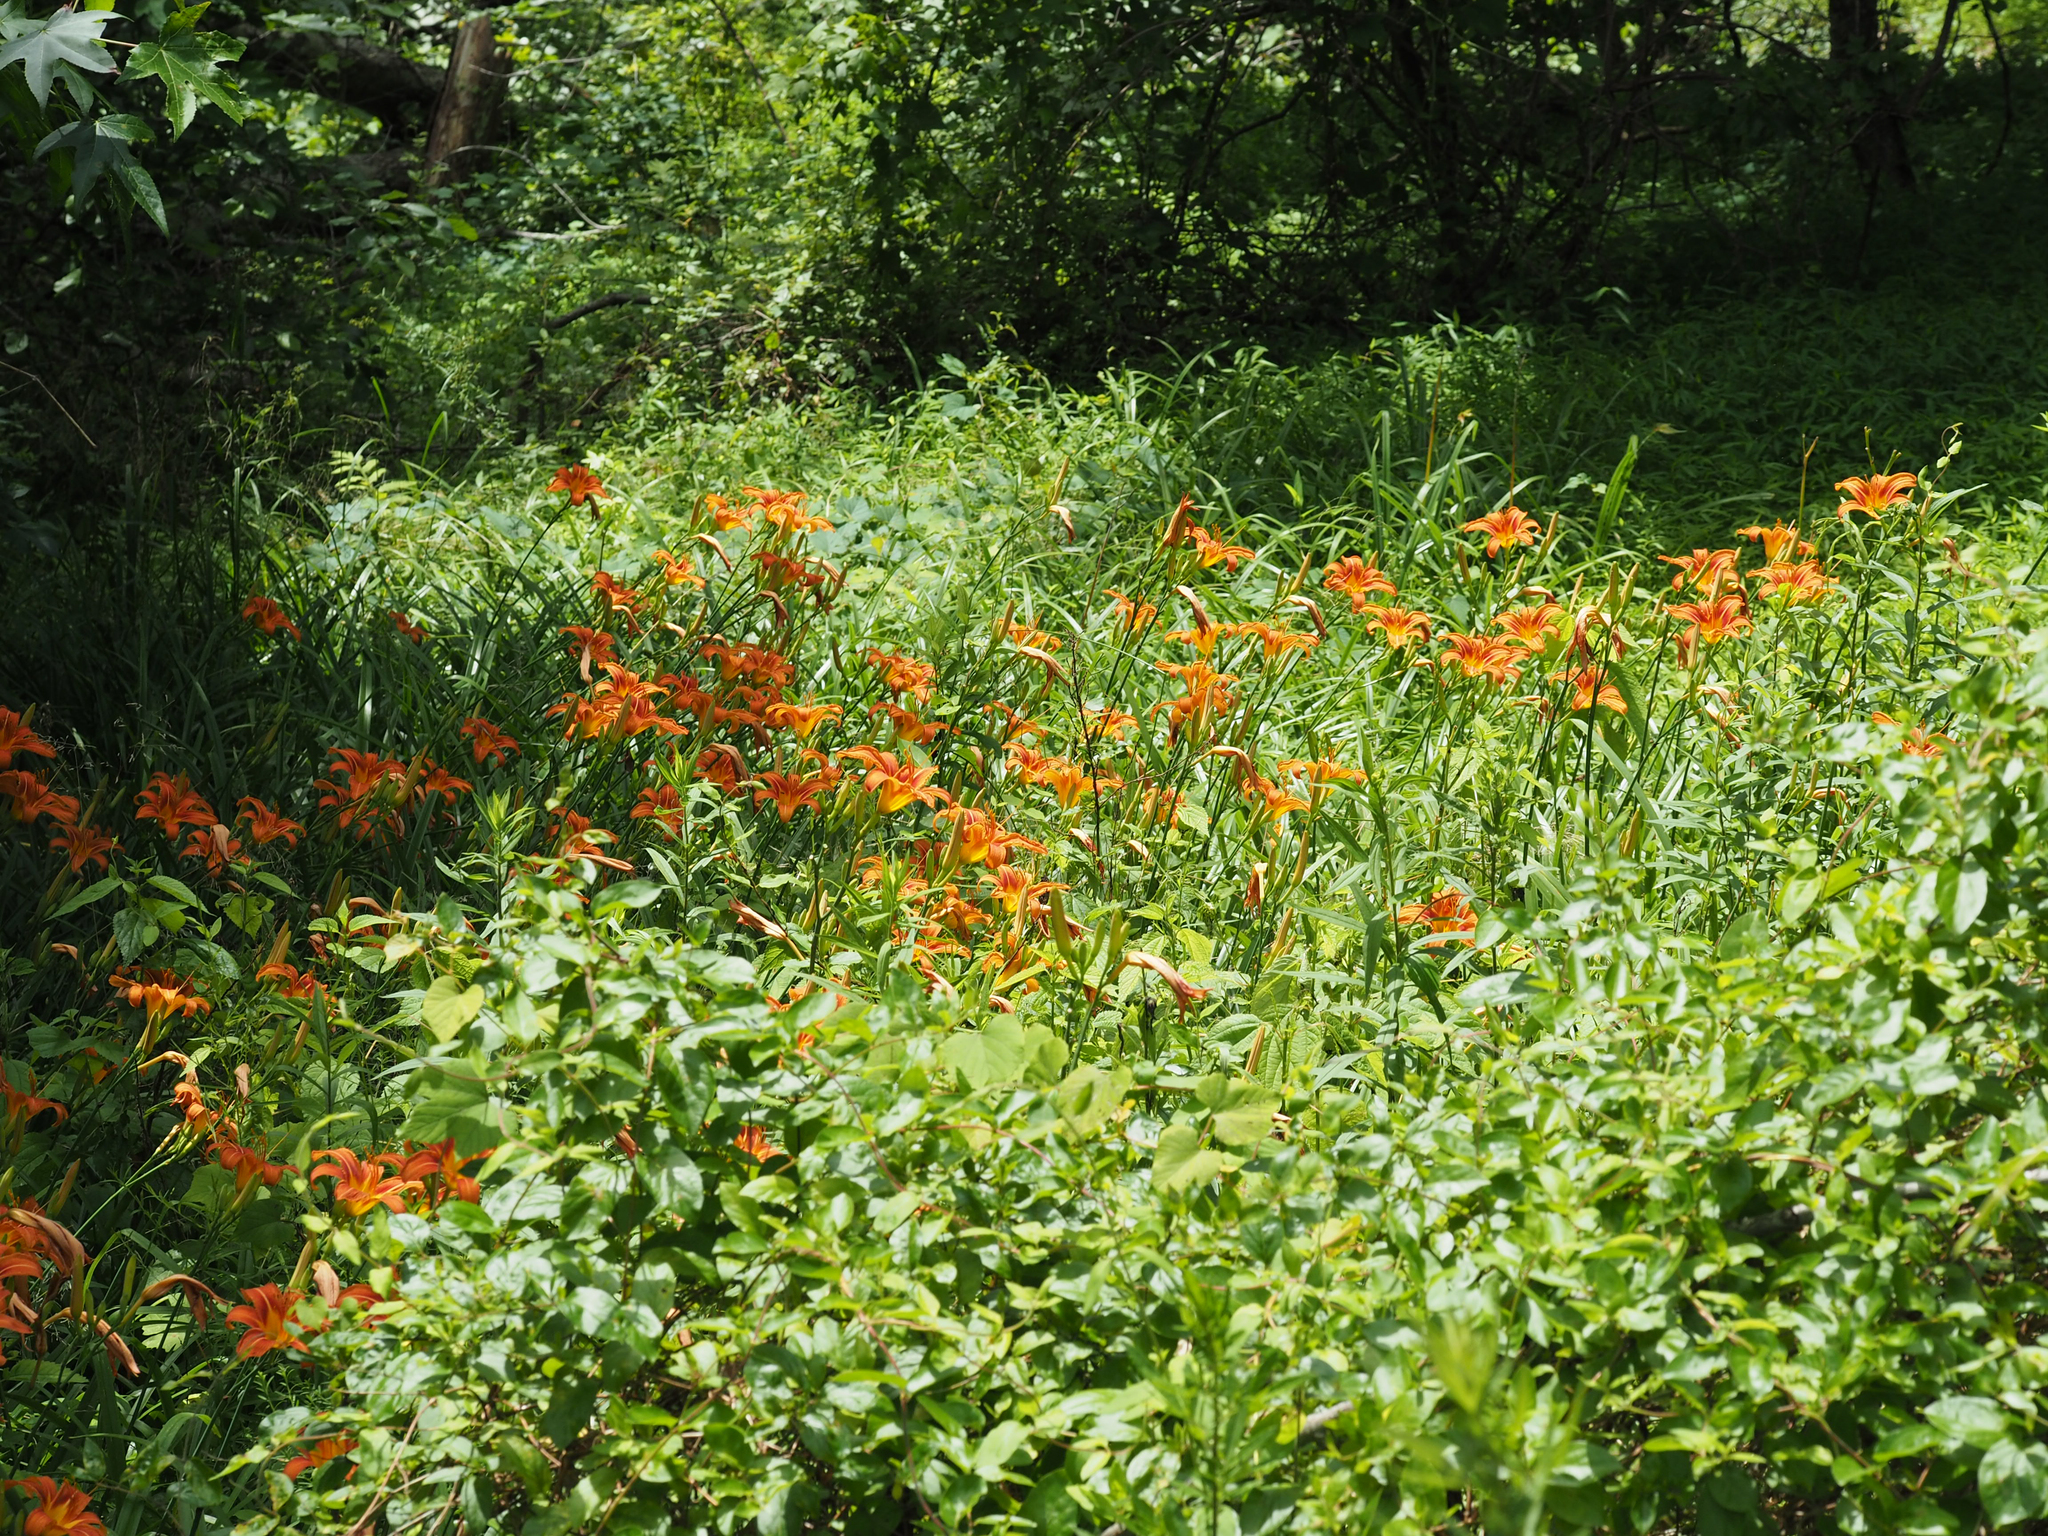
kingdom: Plantae
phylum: Tracheophyta
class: Liliopsida
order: Asparagales
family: Asphodelaceae
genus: Hemerocallis
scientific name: Hemerocallis fulva
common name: Orange day-lily
